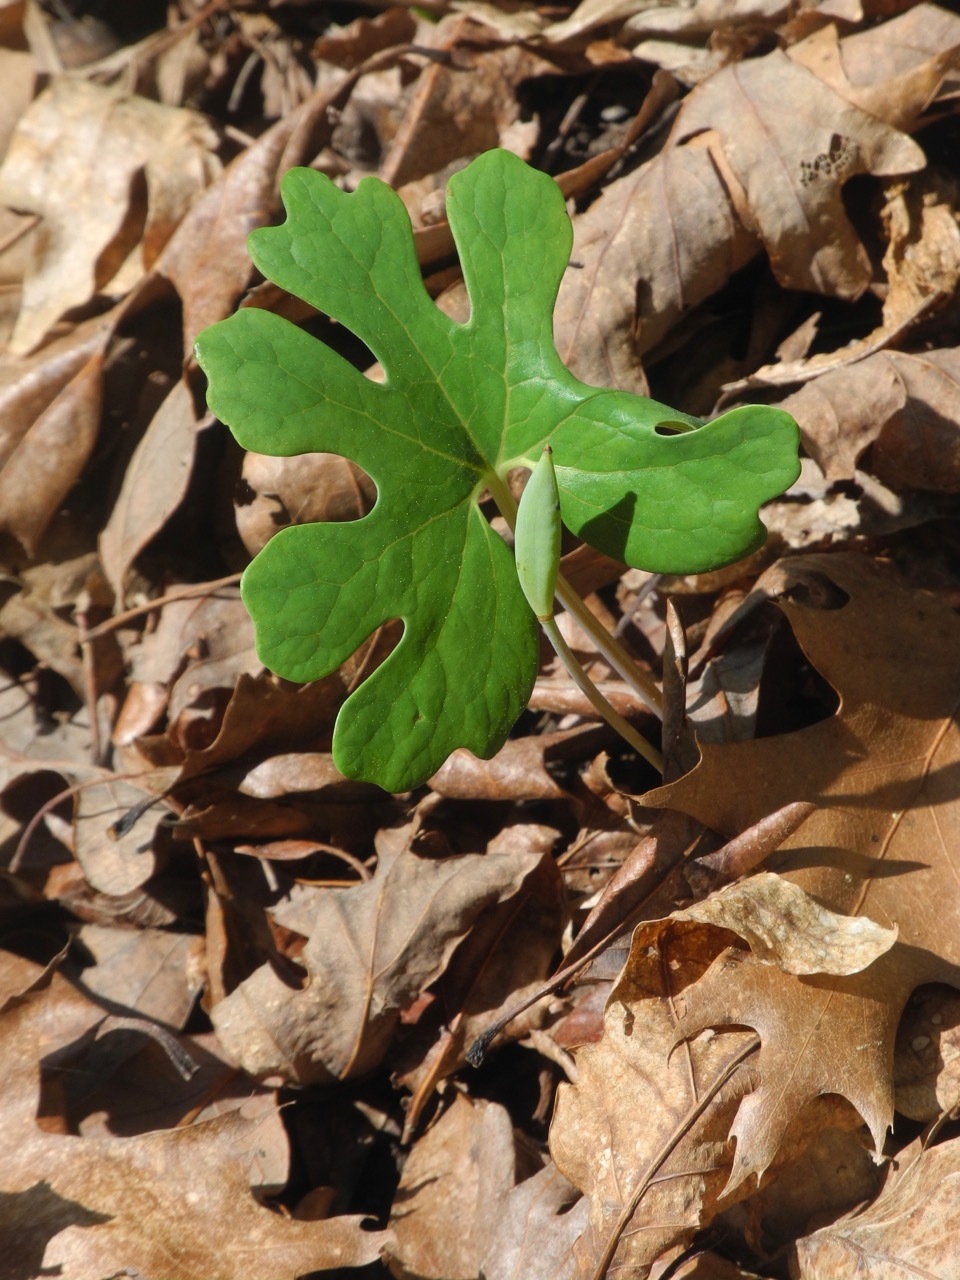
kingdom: Plantae
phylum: Tracheophyta
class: Magnoliopsida
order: Ranunculales
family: Papaveraceae
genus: Sanguinaria
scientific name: Sanguinaria canadensis
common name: Bloodroot
